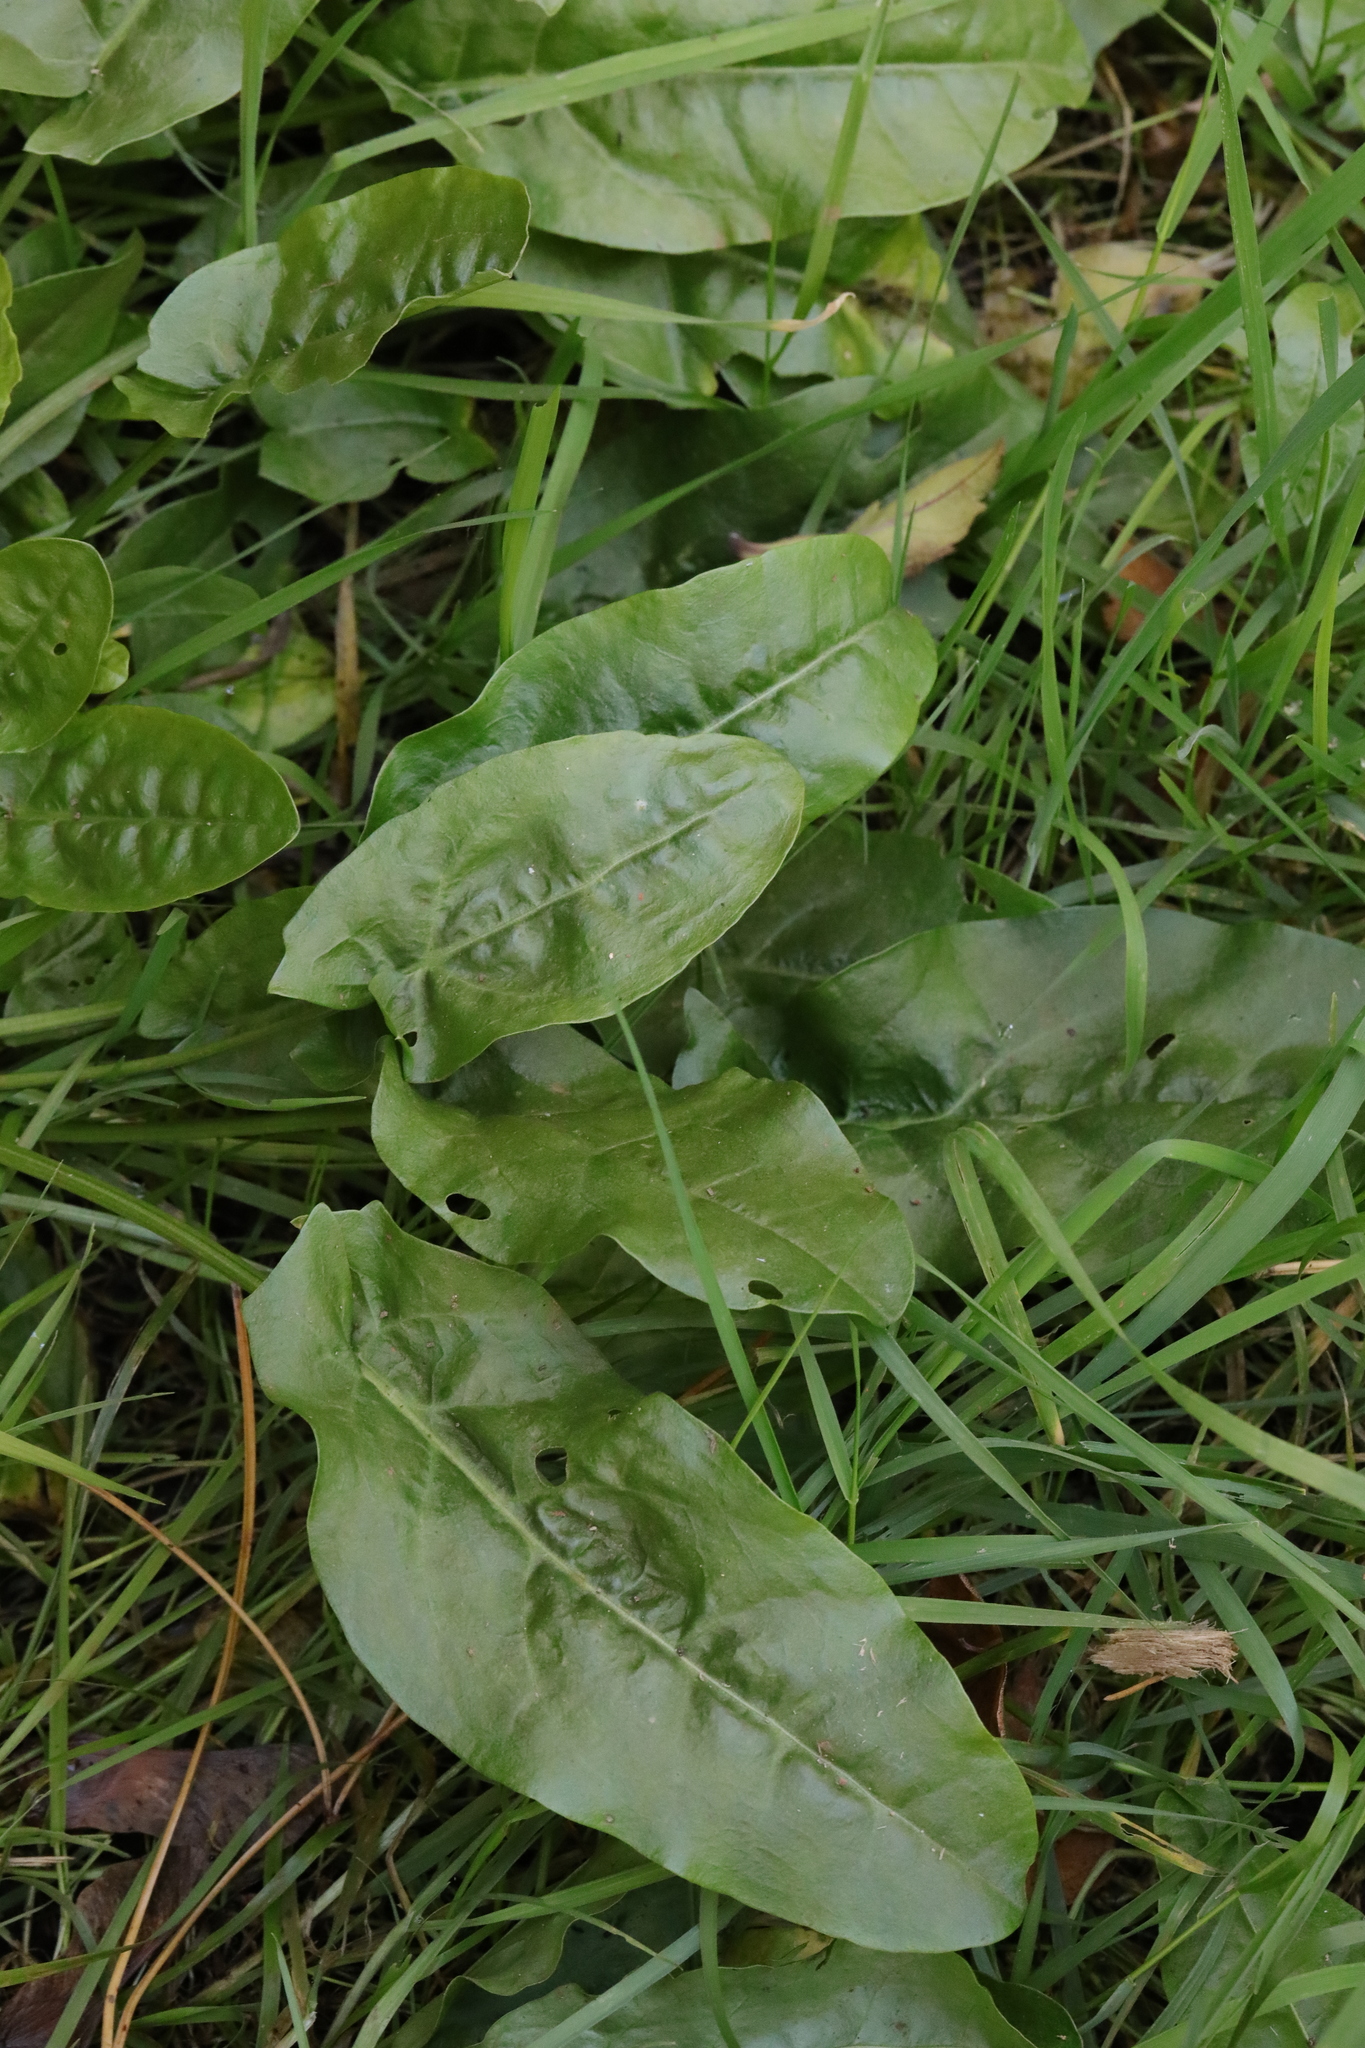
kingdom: Plantae
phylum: Tracheophyta
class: Magnoliopsida
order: Caryophyllales
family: Polygonaceae
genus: Rumex
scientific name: Rumex acetosa
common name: Garden sorrel
